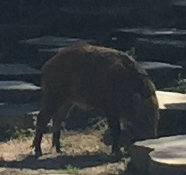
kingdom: Animalia
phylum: Chordata
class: Mammalia
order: Artiodactyla
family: Suidae
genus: Sus
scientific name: Sus scrofa
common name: Wild boar
